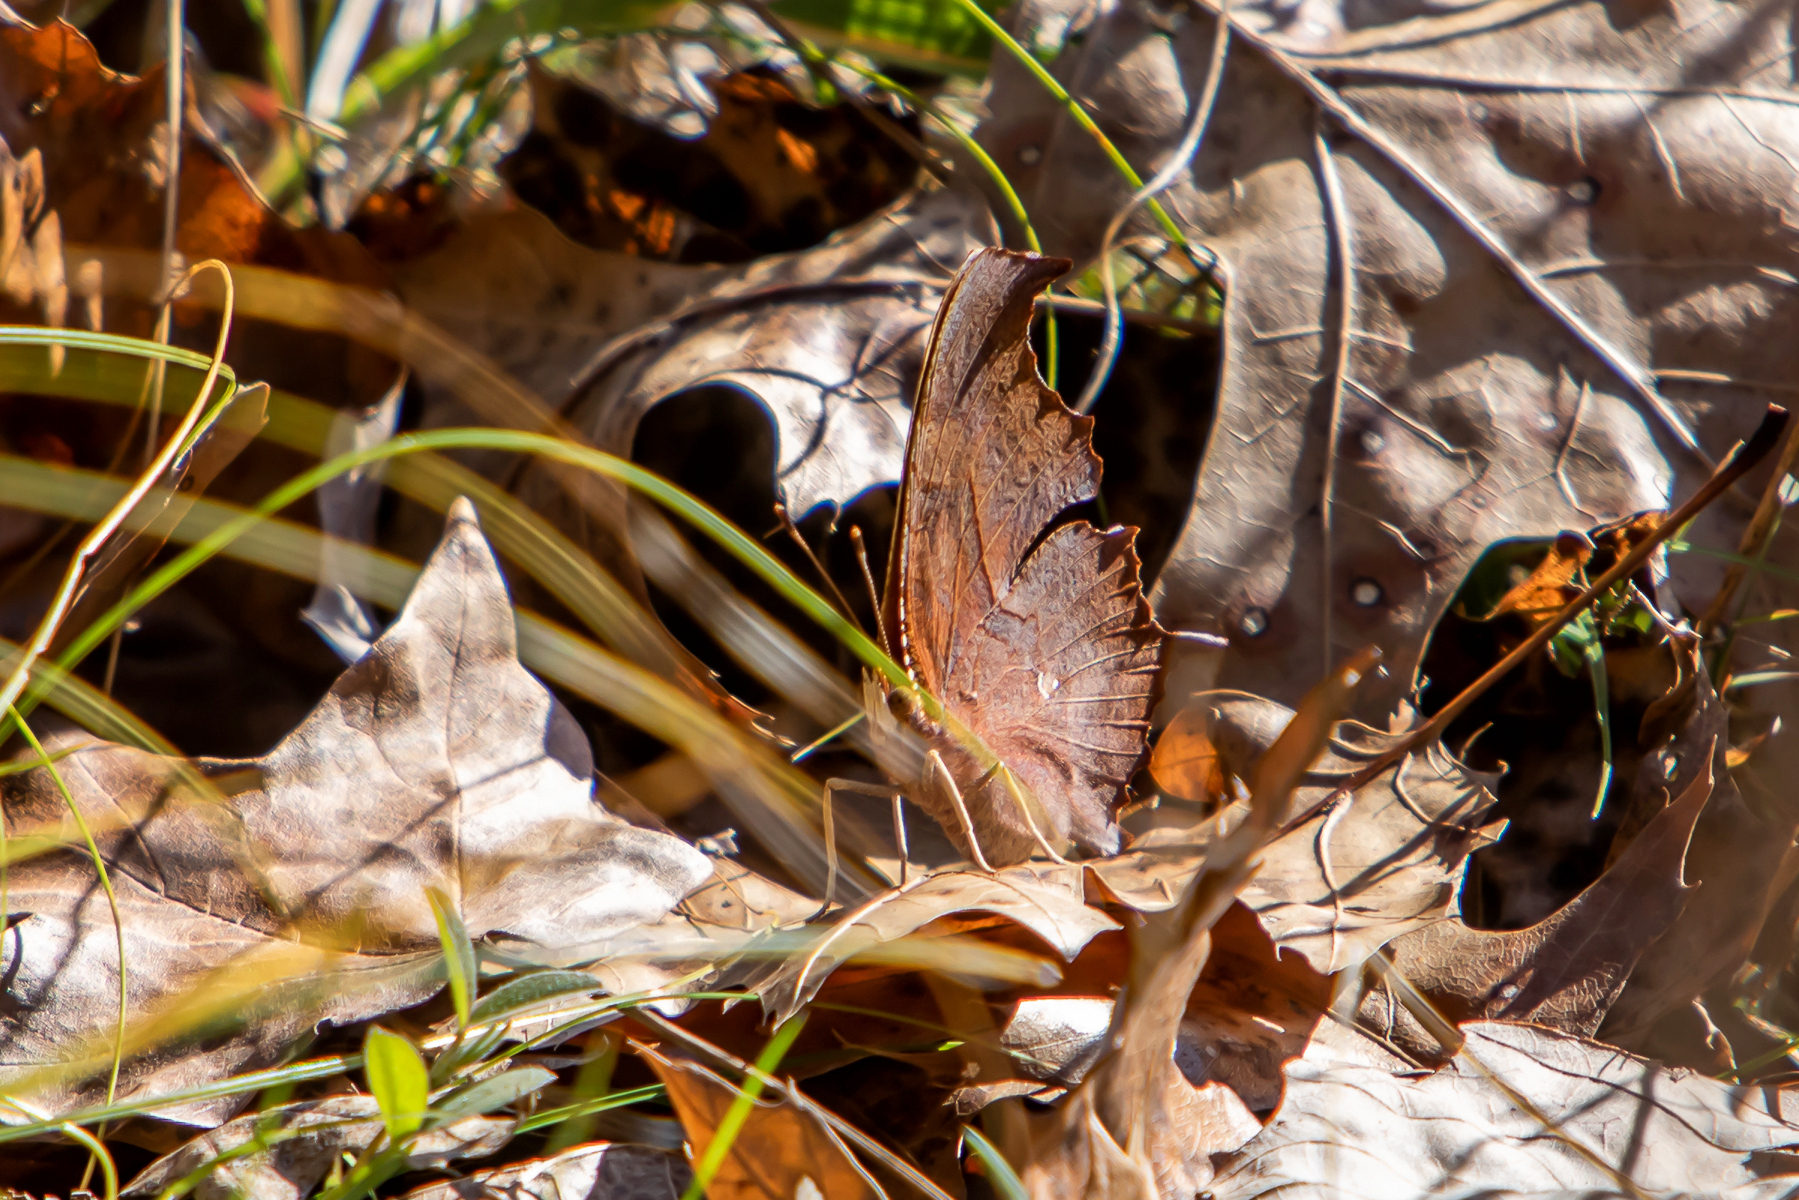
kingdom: Animalia
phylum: Arthropoda
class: Insecta
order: Lepidoptera
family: Nymphalidae
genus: Polygonia
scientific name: Polygonia interrogationis
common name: Question mark
